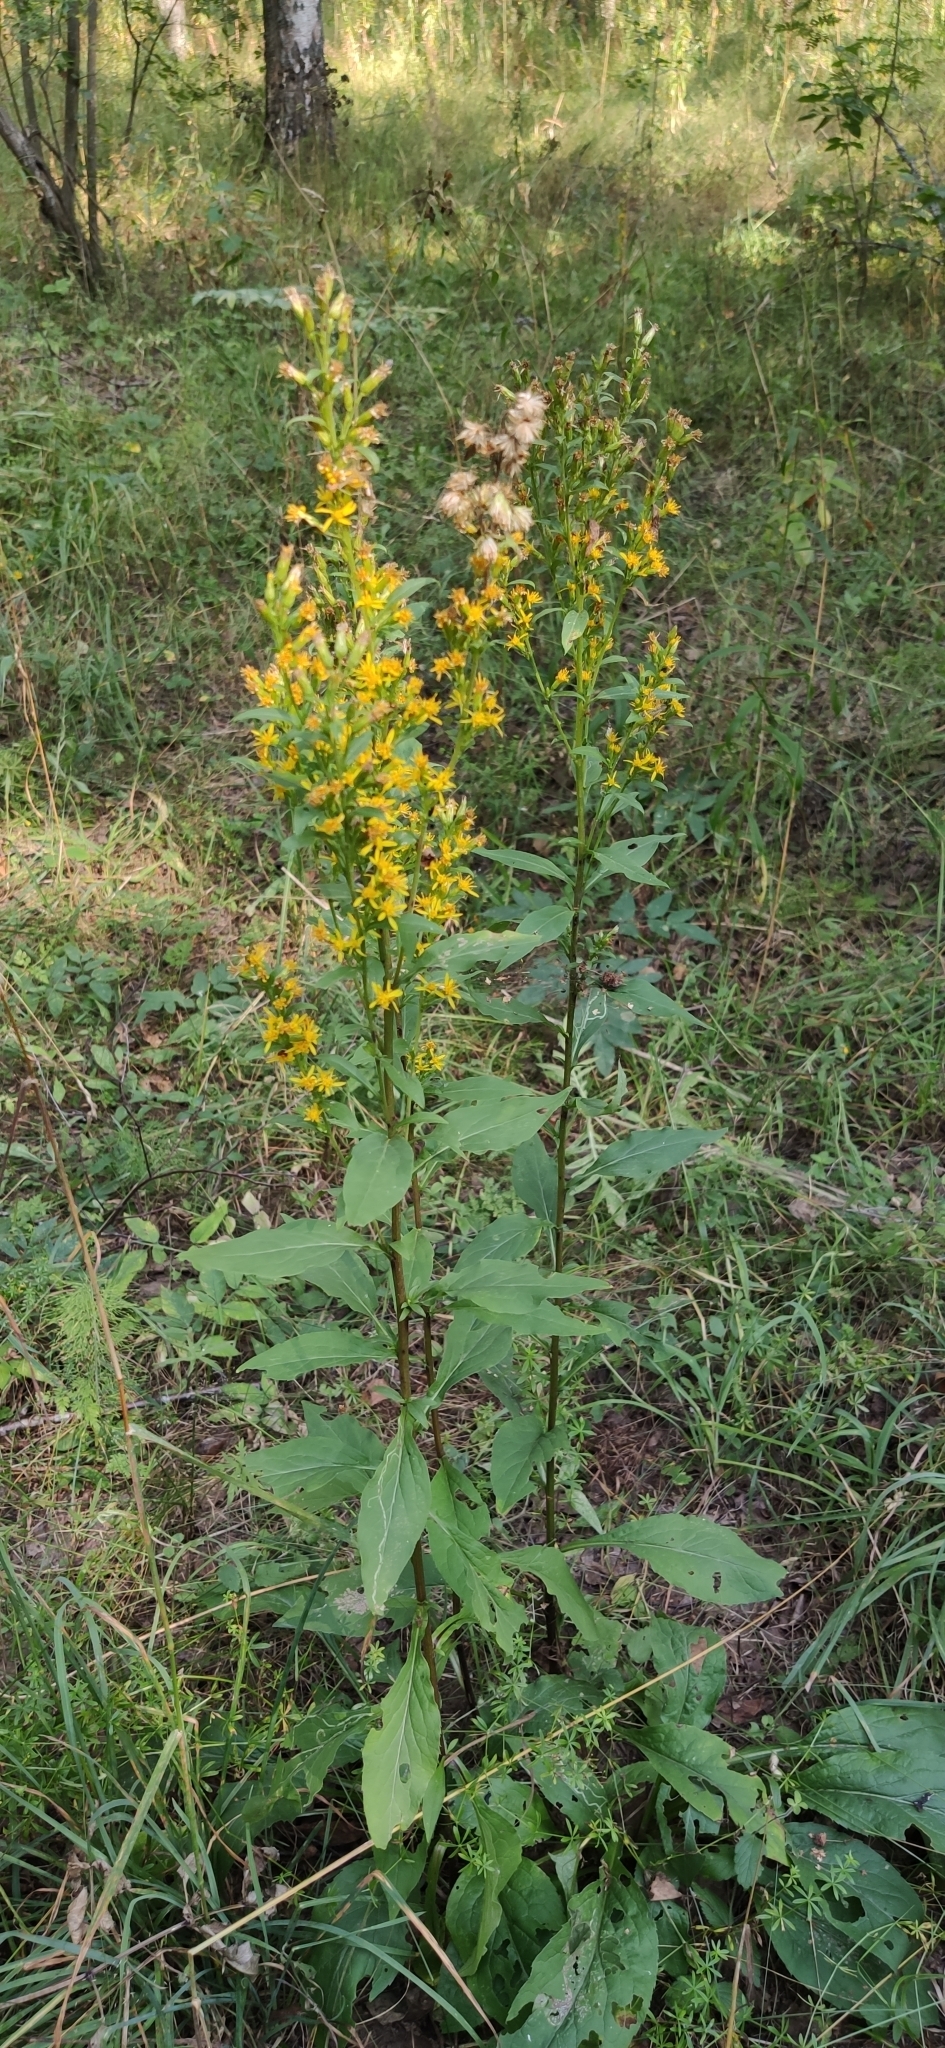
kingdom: Plantae
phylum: Tracheophyta
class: Magnoliopsida
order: Asterales
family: Asteraceae
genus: Solidago
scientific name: Solidago virgaurea
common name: Goldenrod
